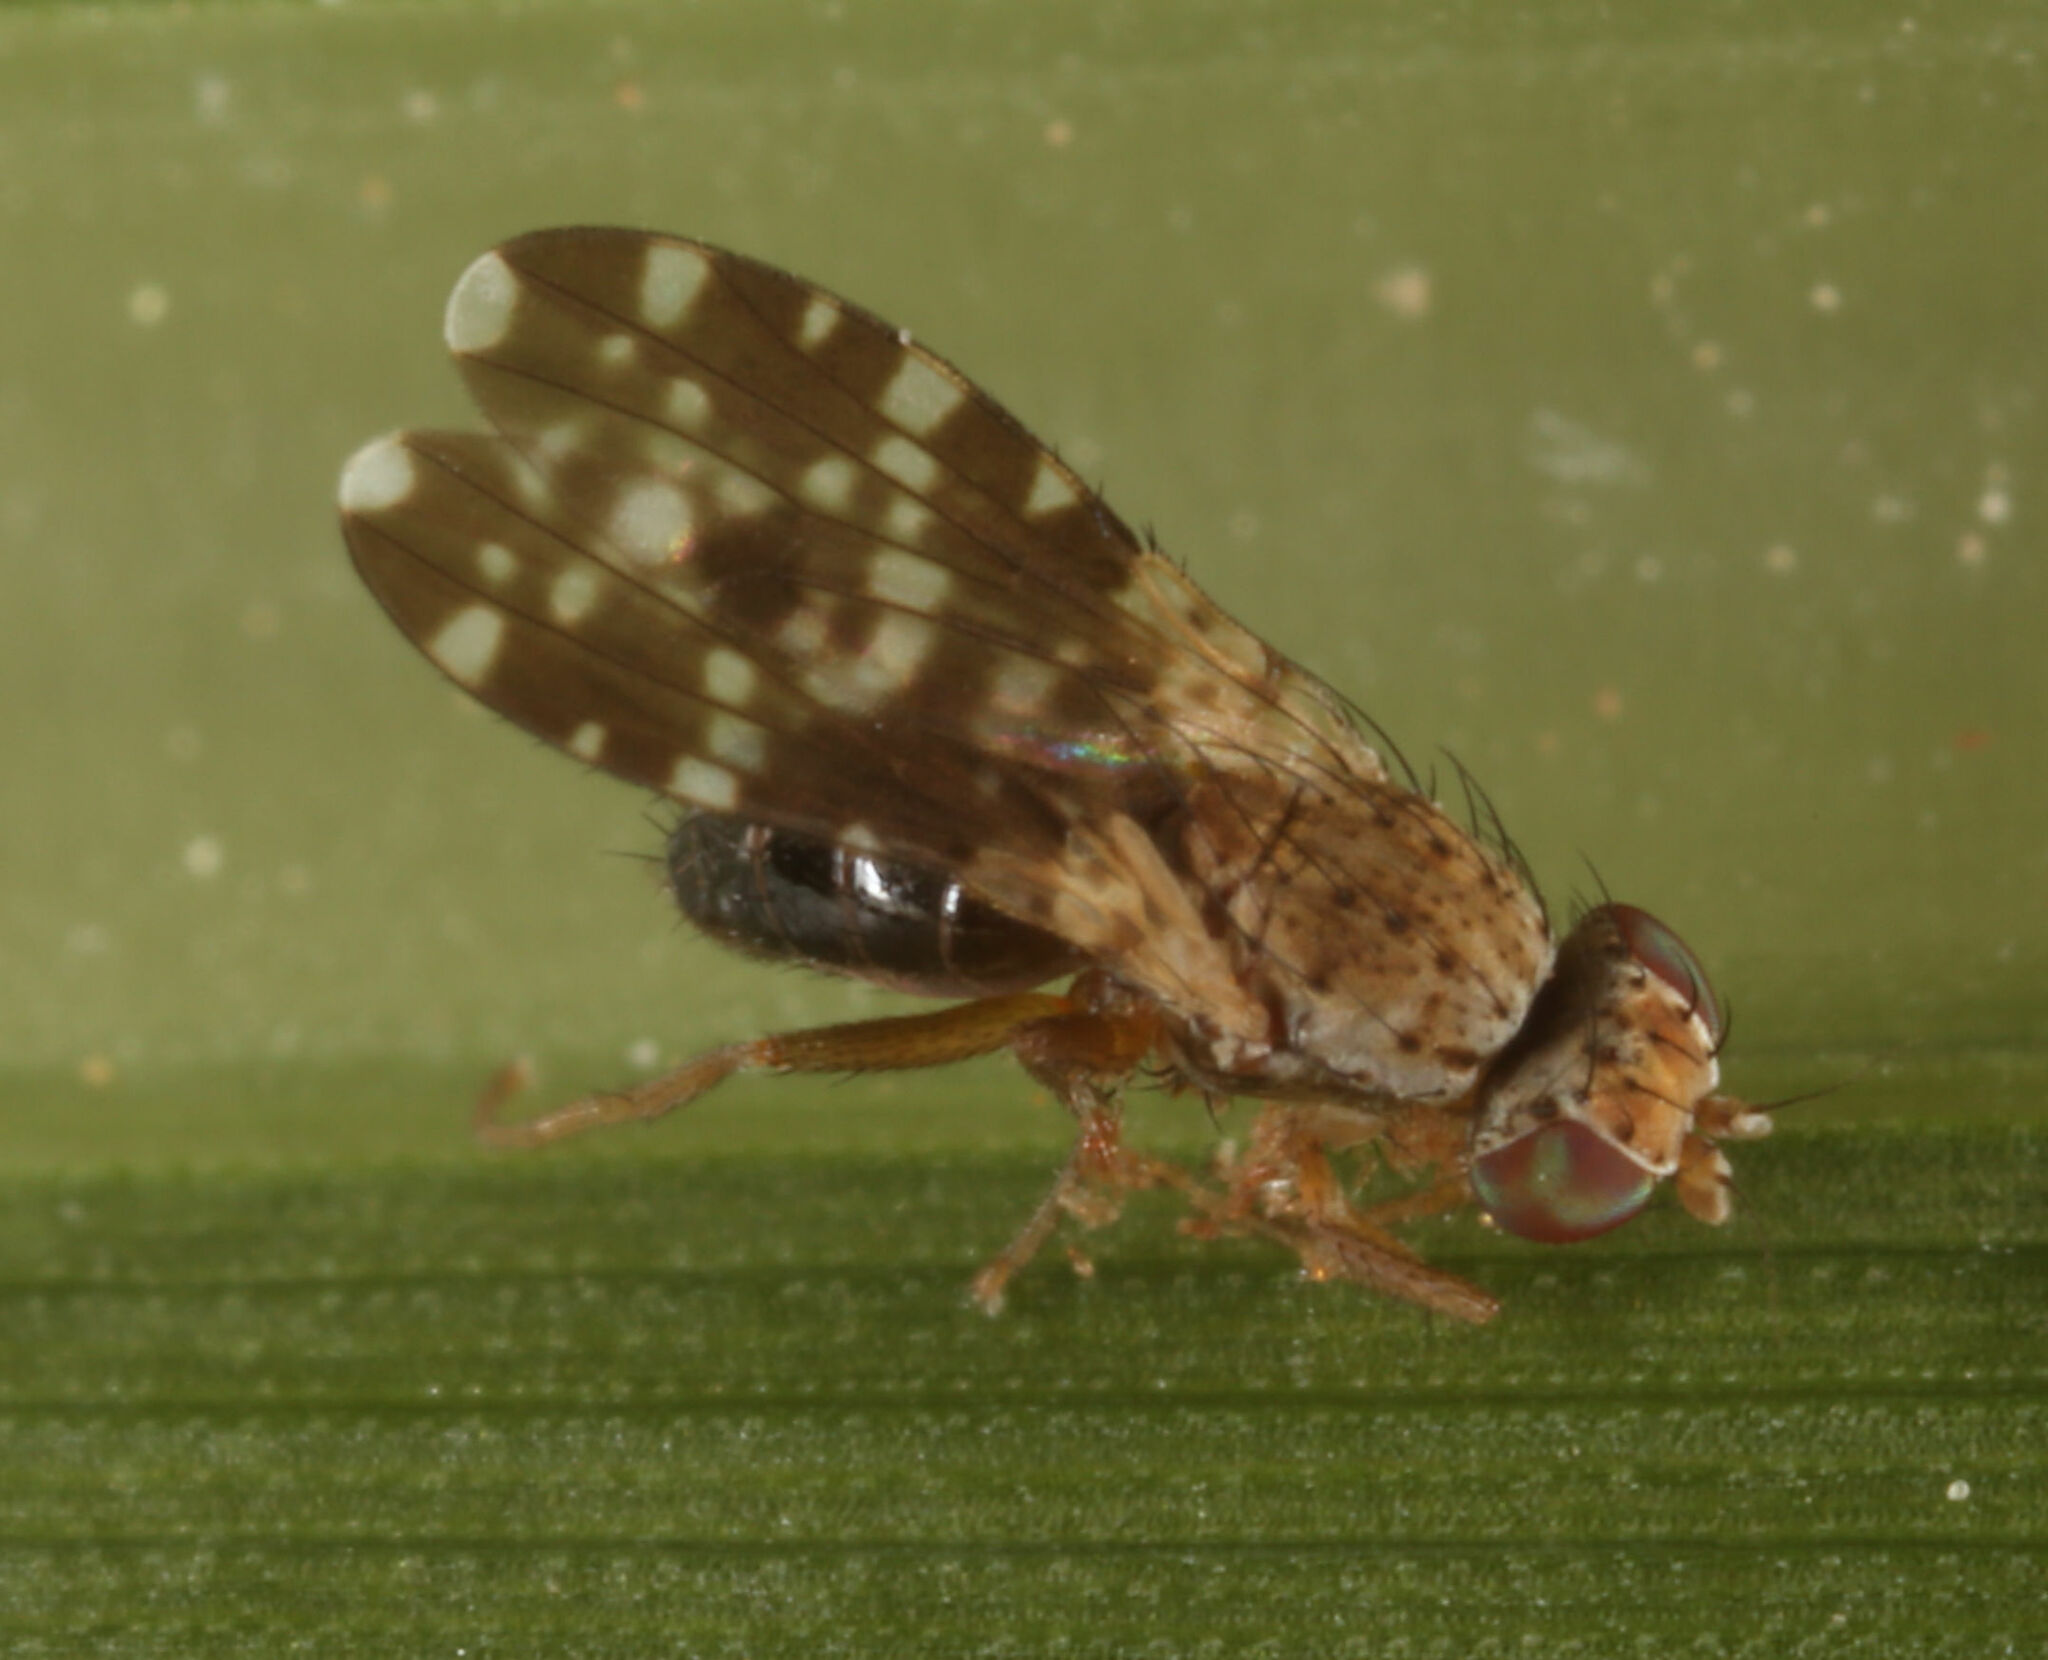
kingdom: Animalia
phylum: Arthropoda
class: Insecta
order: Diptera
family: Heleomyzidae
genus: Trixoscelis
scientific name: Trixoscelis polita
